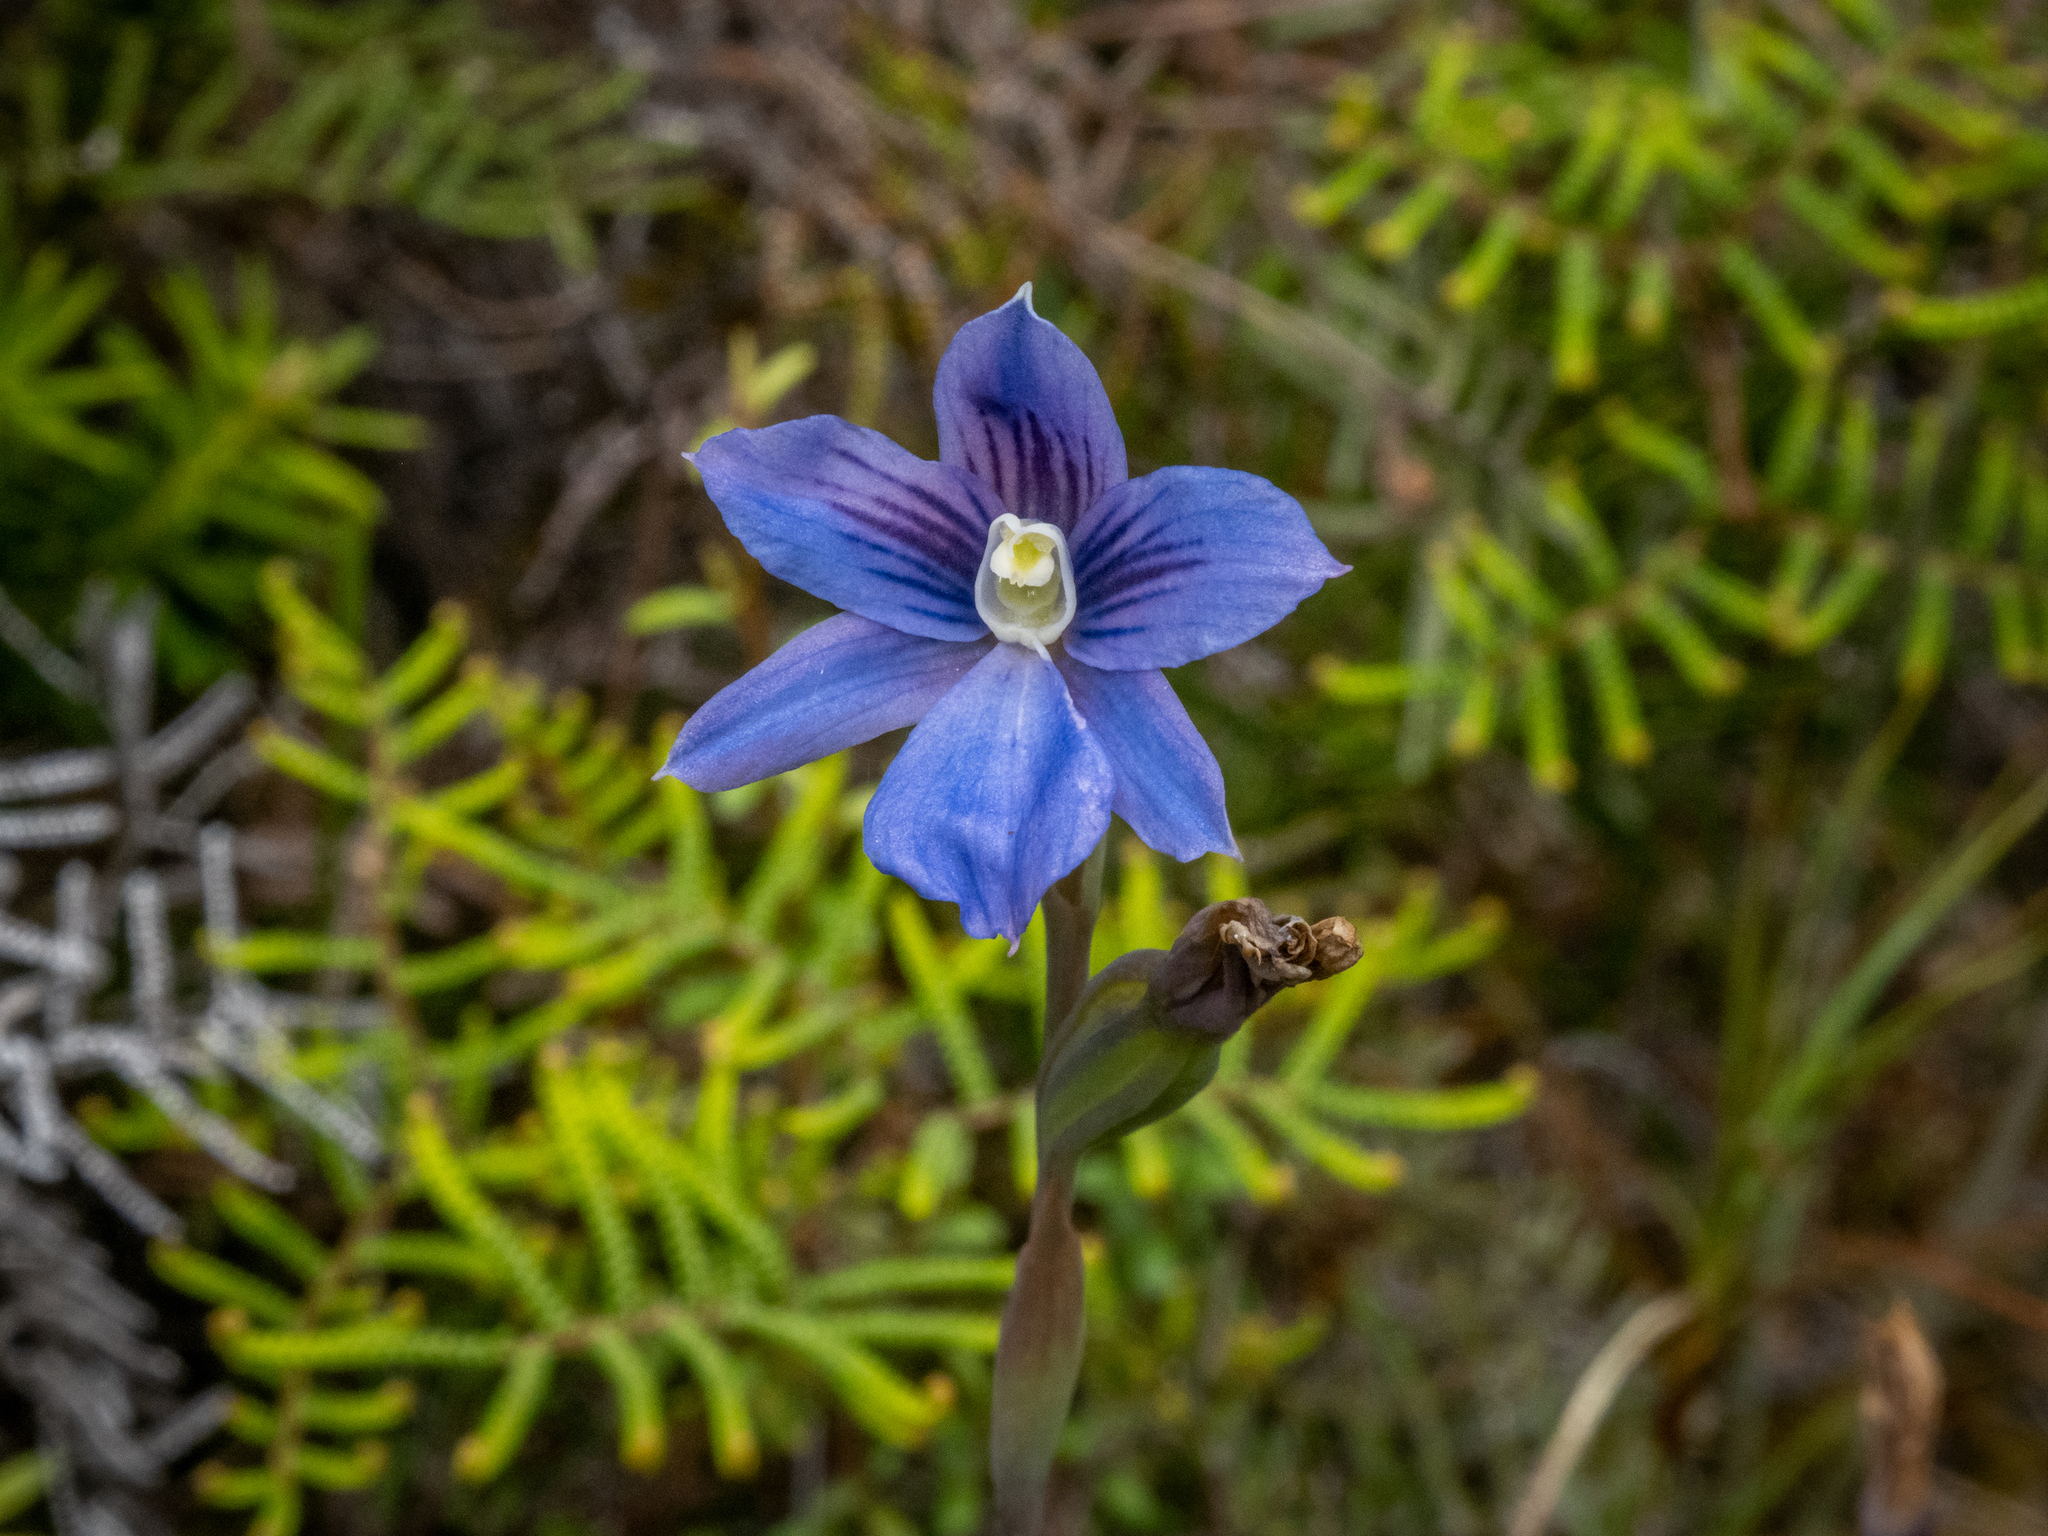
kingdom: Plantae
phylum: Tracheophyta
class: Liliopsida
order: Asparagales
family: Orchidaceae
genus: Thelymitra
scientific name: Thelymitra cyanea
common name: Blue sun-orchid
